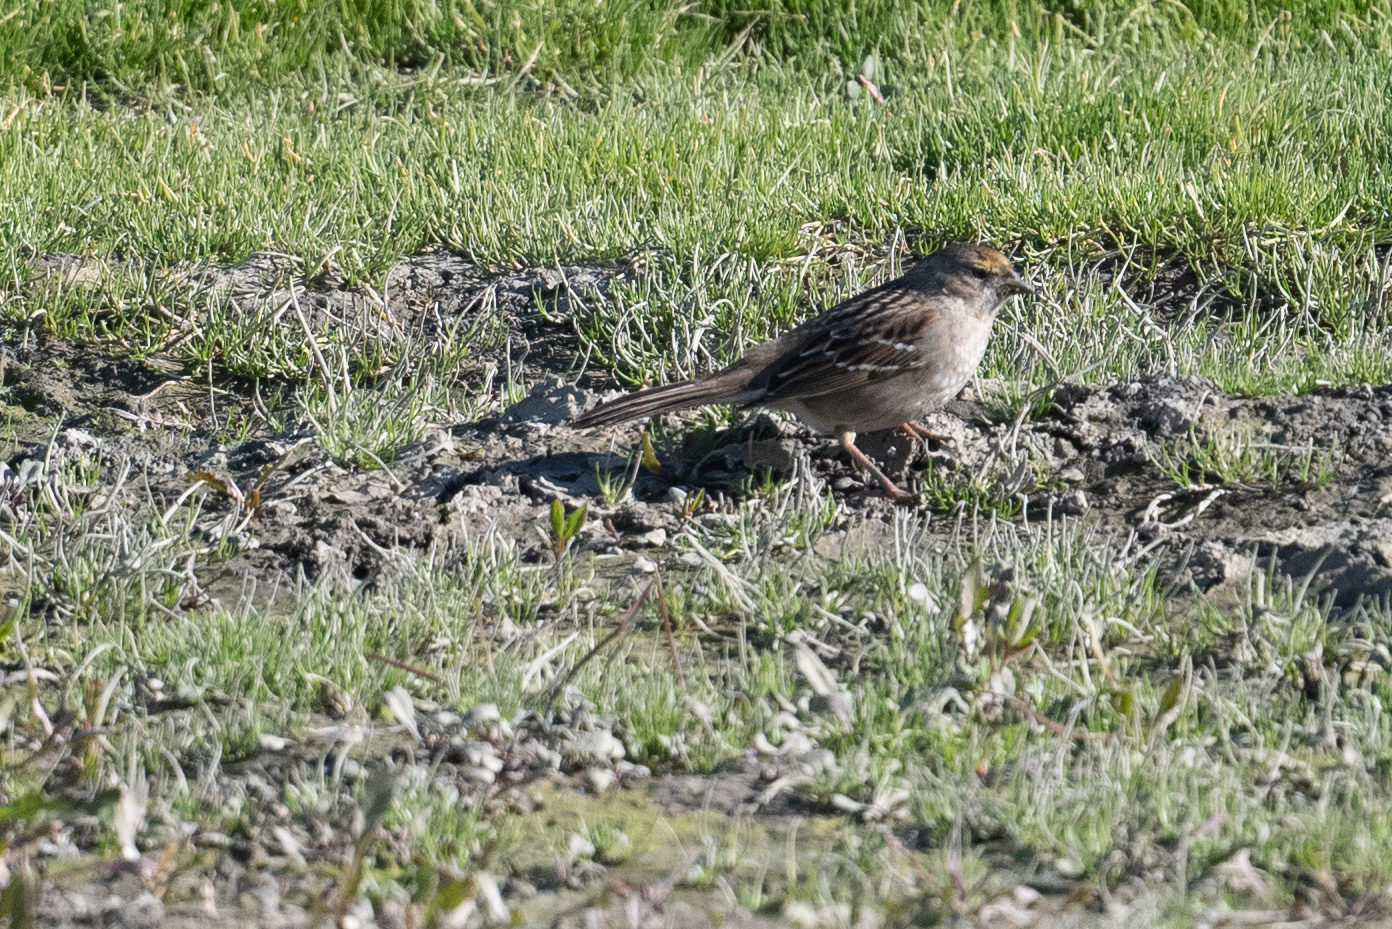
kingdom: Animalia
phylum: Chordata
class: Aves
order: Passeriformes
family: Passerellidae
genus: Zonotrichia
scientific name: Zonotrichia atricapilla
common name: Golden-crowned sparrow
